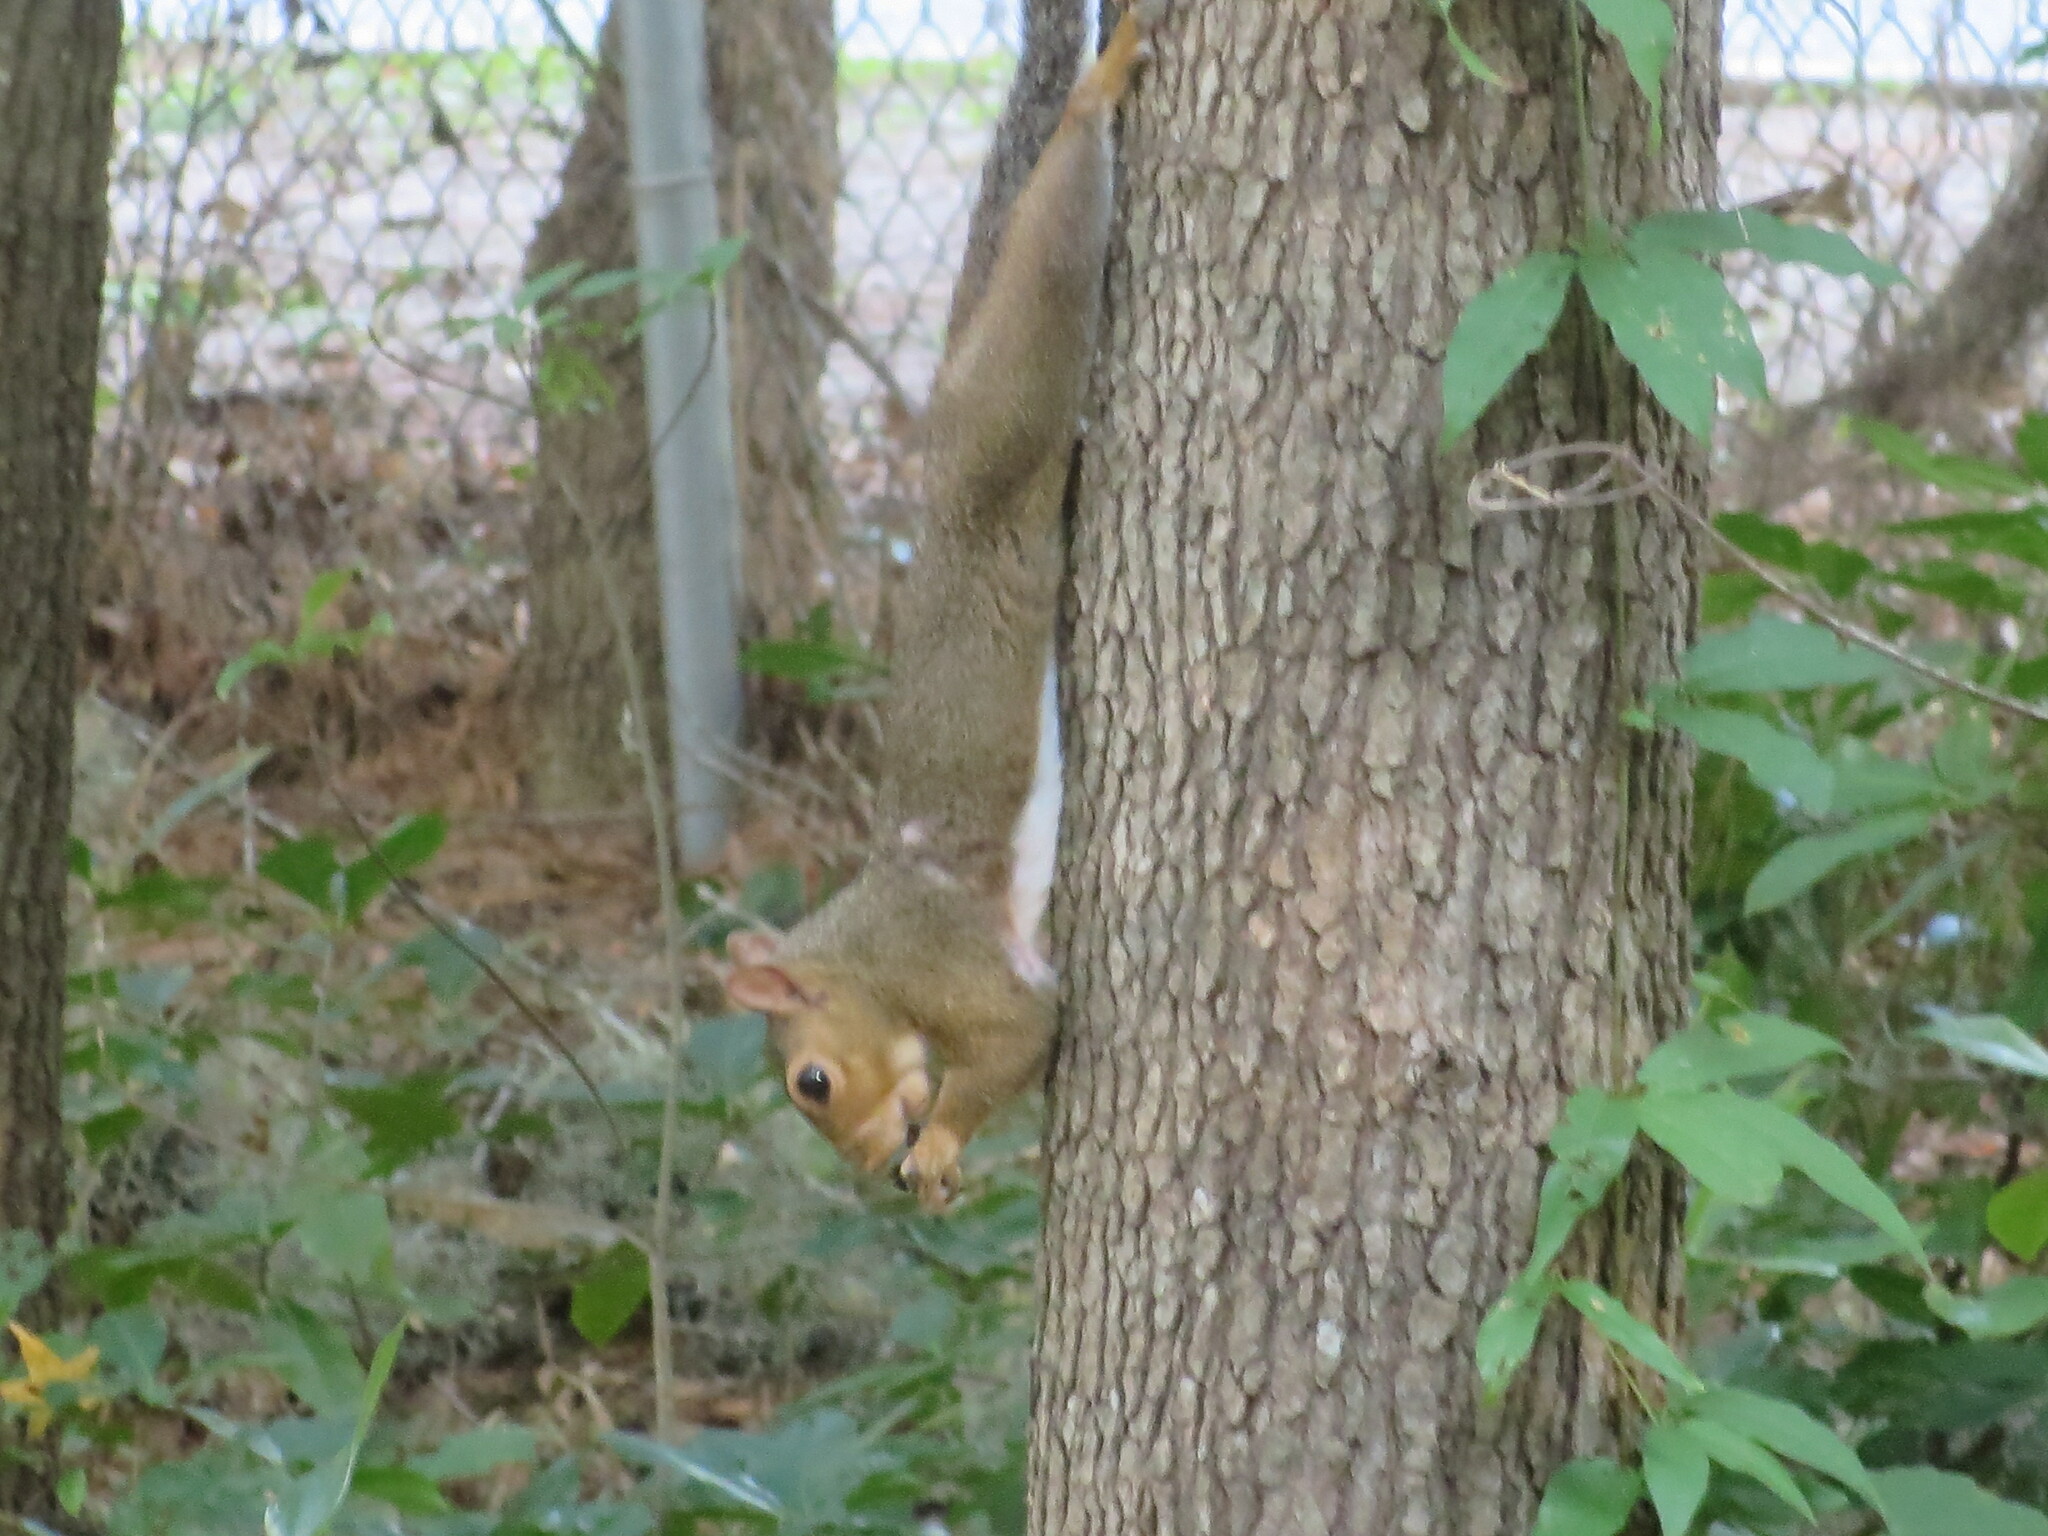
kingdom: Animalia
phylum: Chordata
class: Mammalia
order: Rodentia
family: Sciuridae
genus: Sciurus
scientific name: Sciurus carolinensis
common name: Eastern gray squirrel
